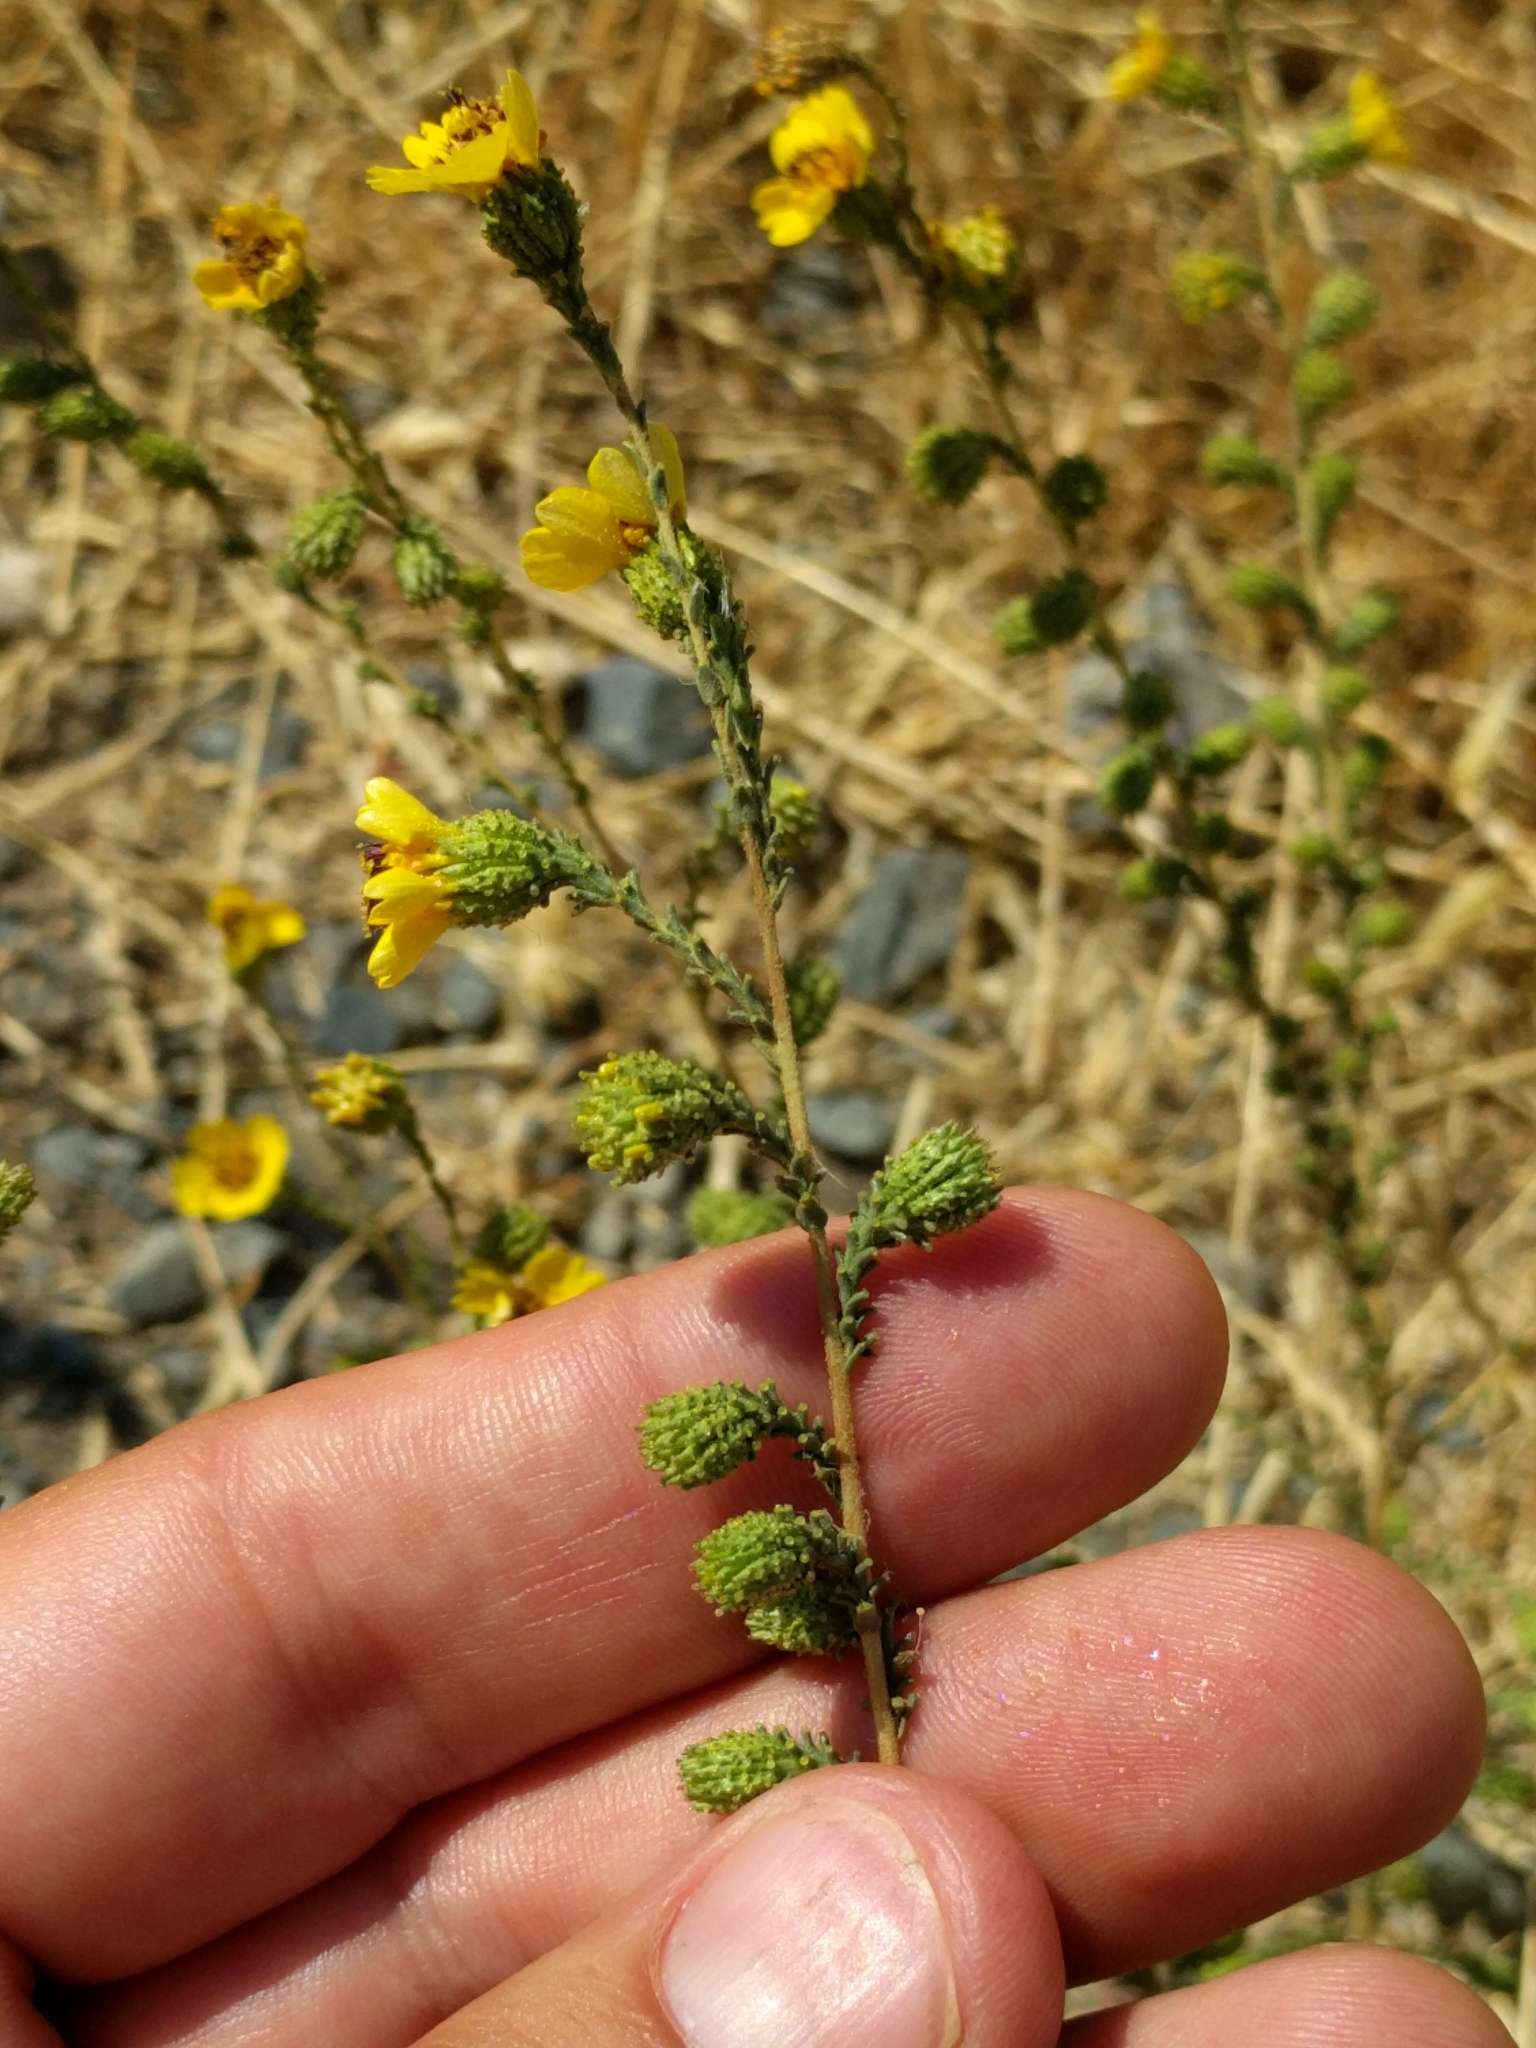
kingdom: Plantae
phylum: Tracheophyta
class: Magnoliopsida
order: Asterales
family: Asteraceae
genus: Holocarpha
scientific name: Holocarpha virgata
